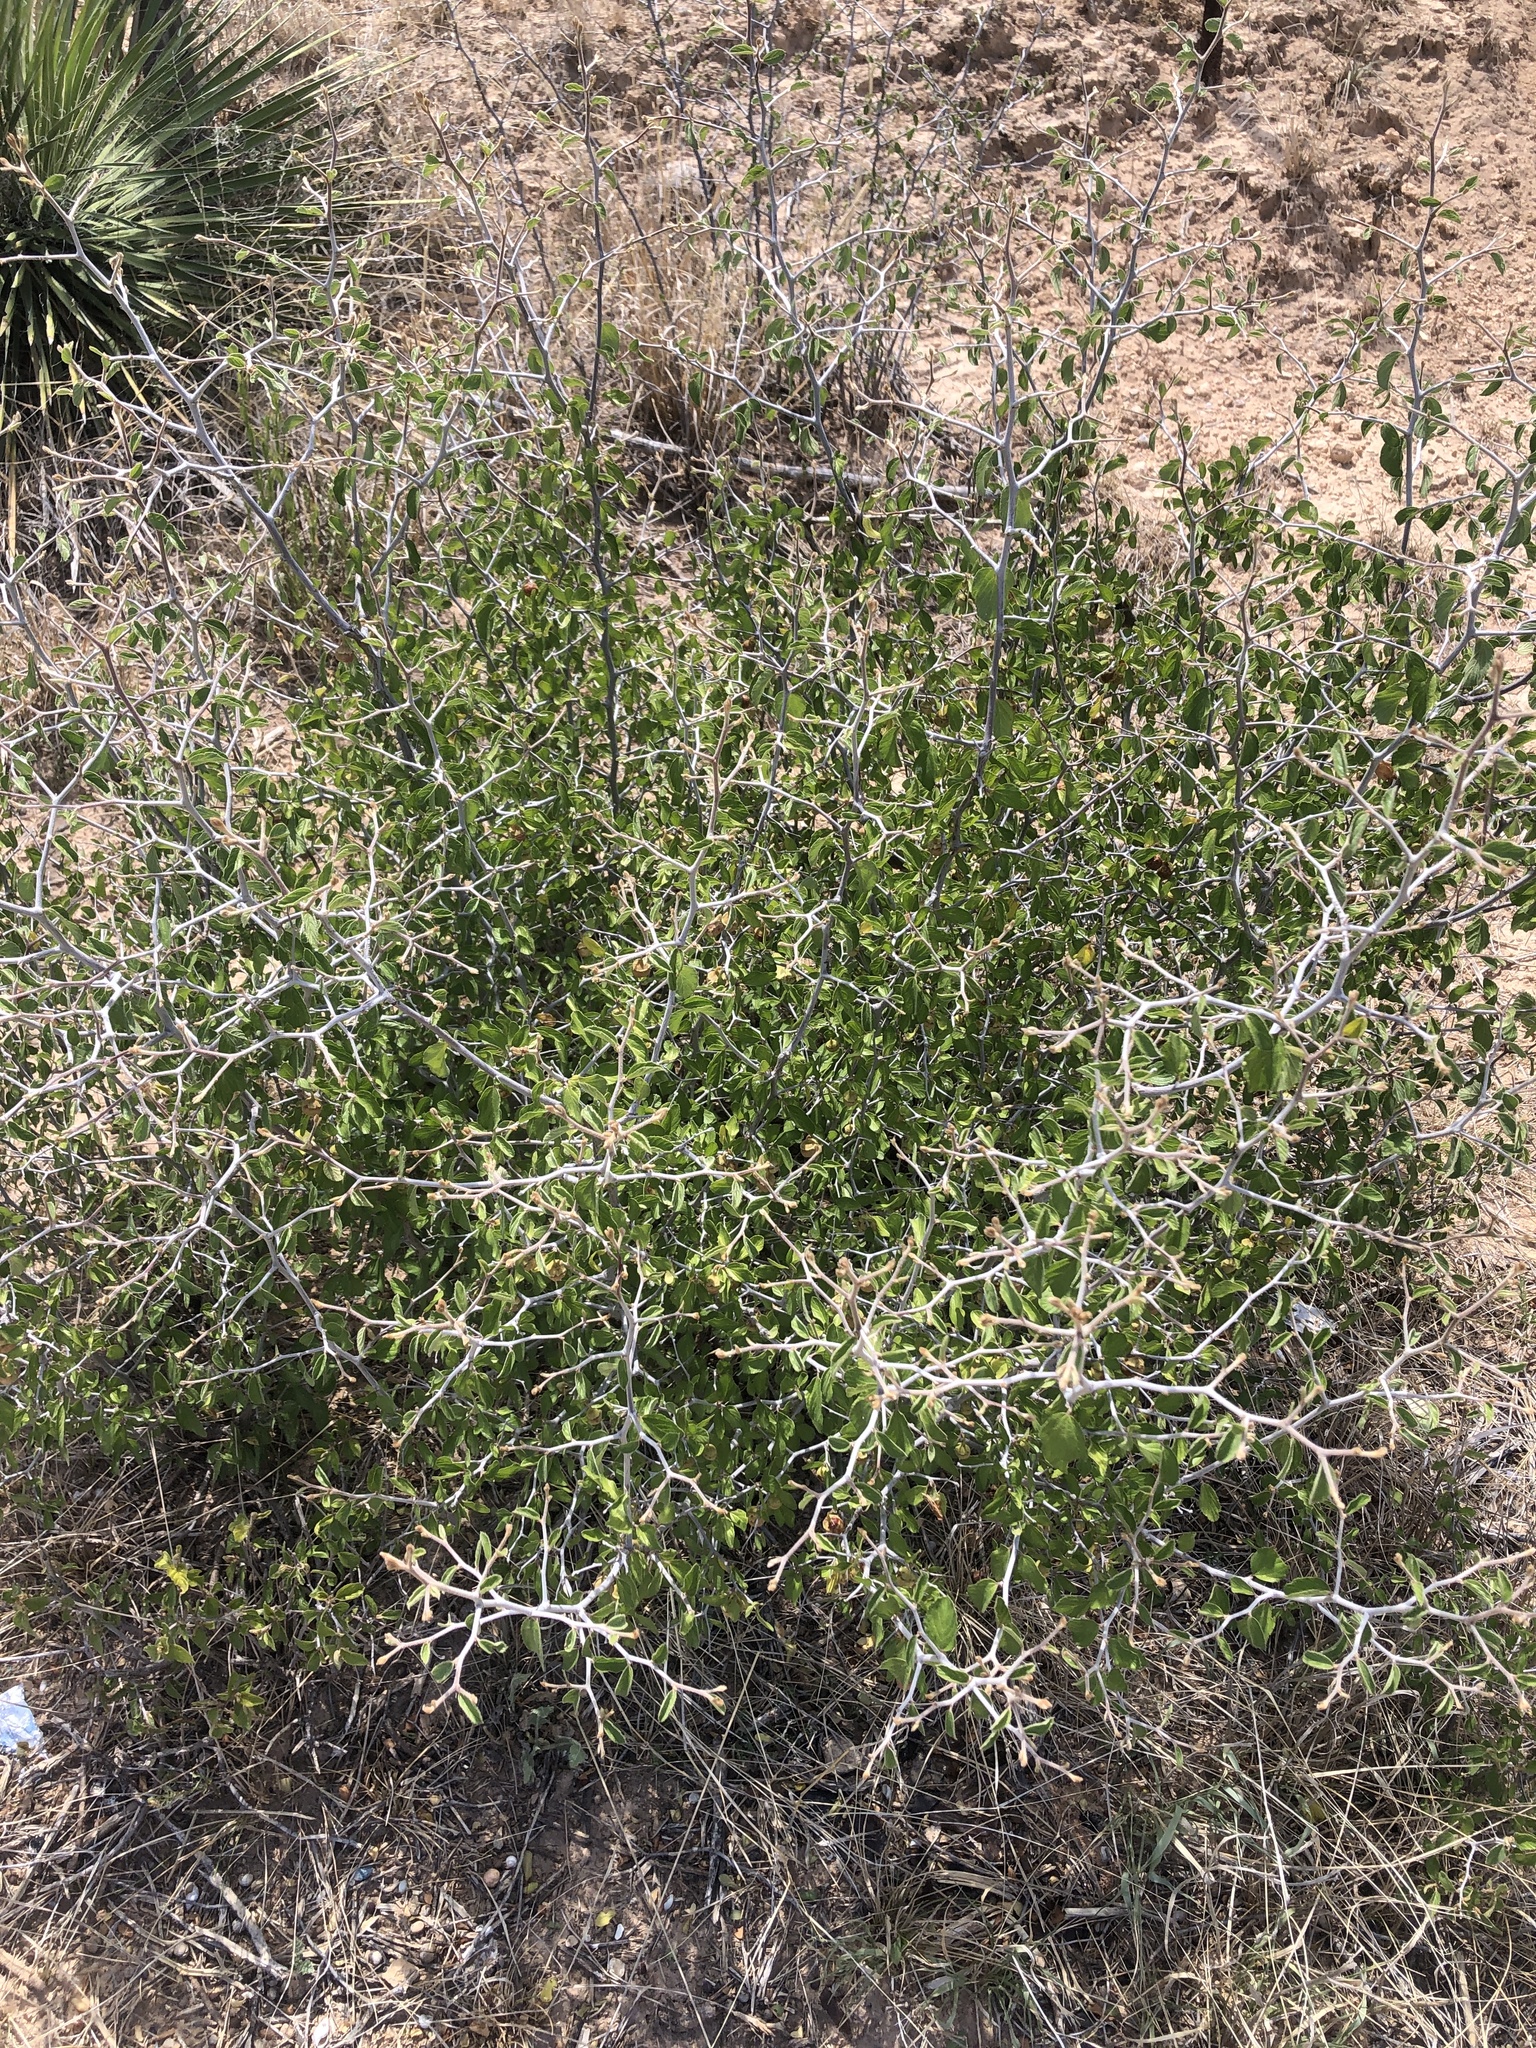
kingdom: Plantae
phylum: Tracheophyta
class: Magnoliopsida
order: Rosales
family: Rhamnaceae
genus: Colubrina
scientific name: Colubrina texensis
